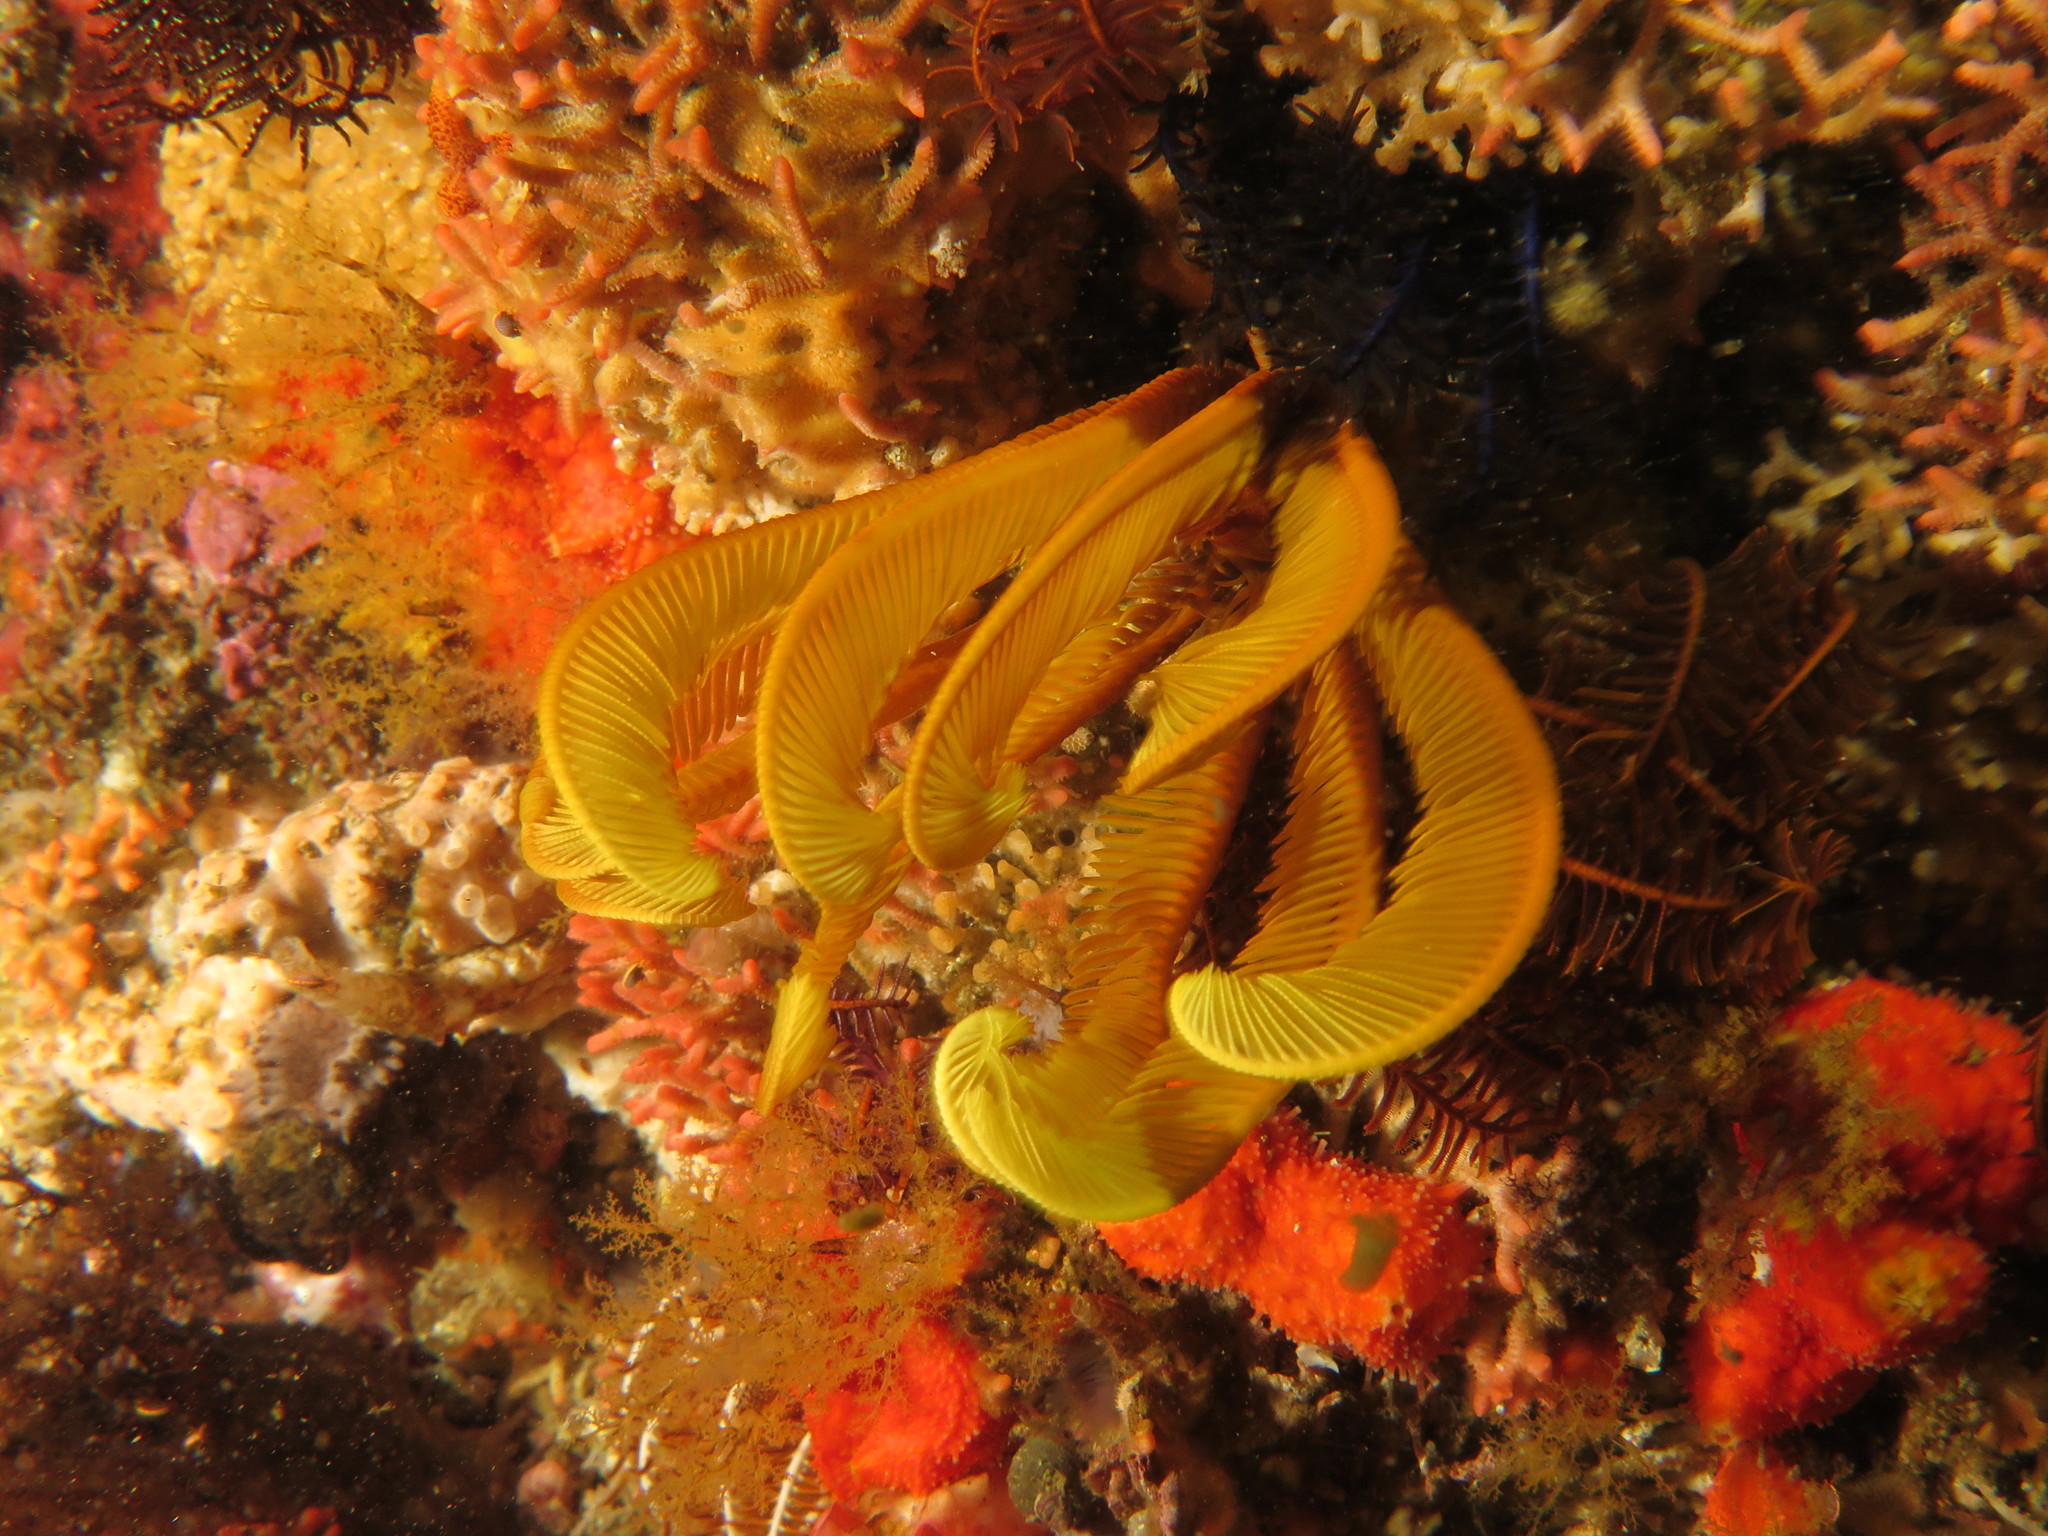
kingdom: Animalia
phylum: Echinodermata
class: Crinoidea
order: Comatulida
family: Tropiometridae
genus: Tropiometra
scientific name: Tropiometra carinata
